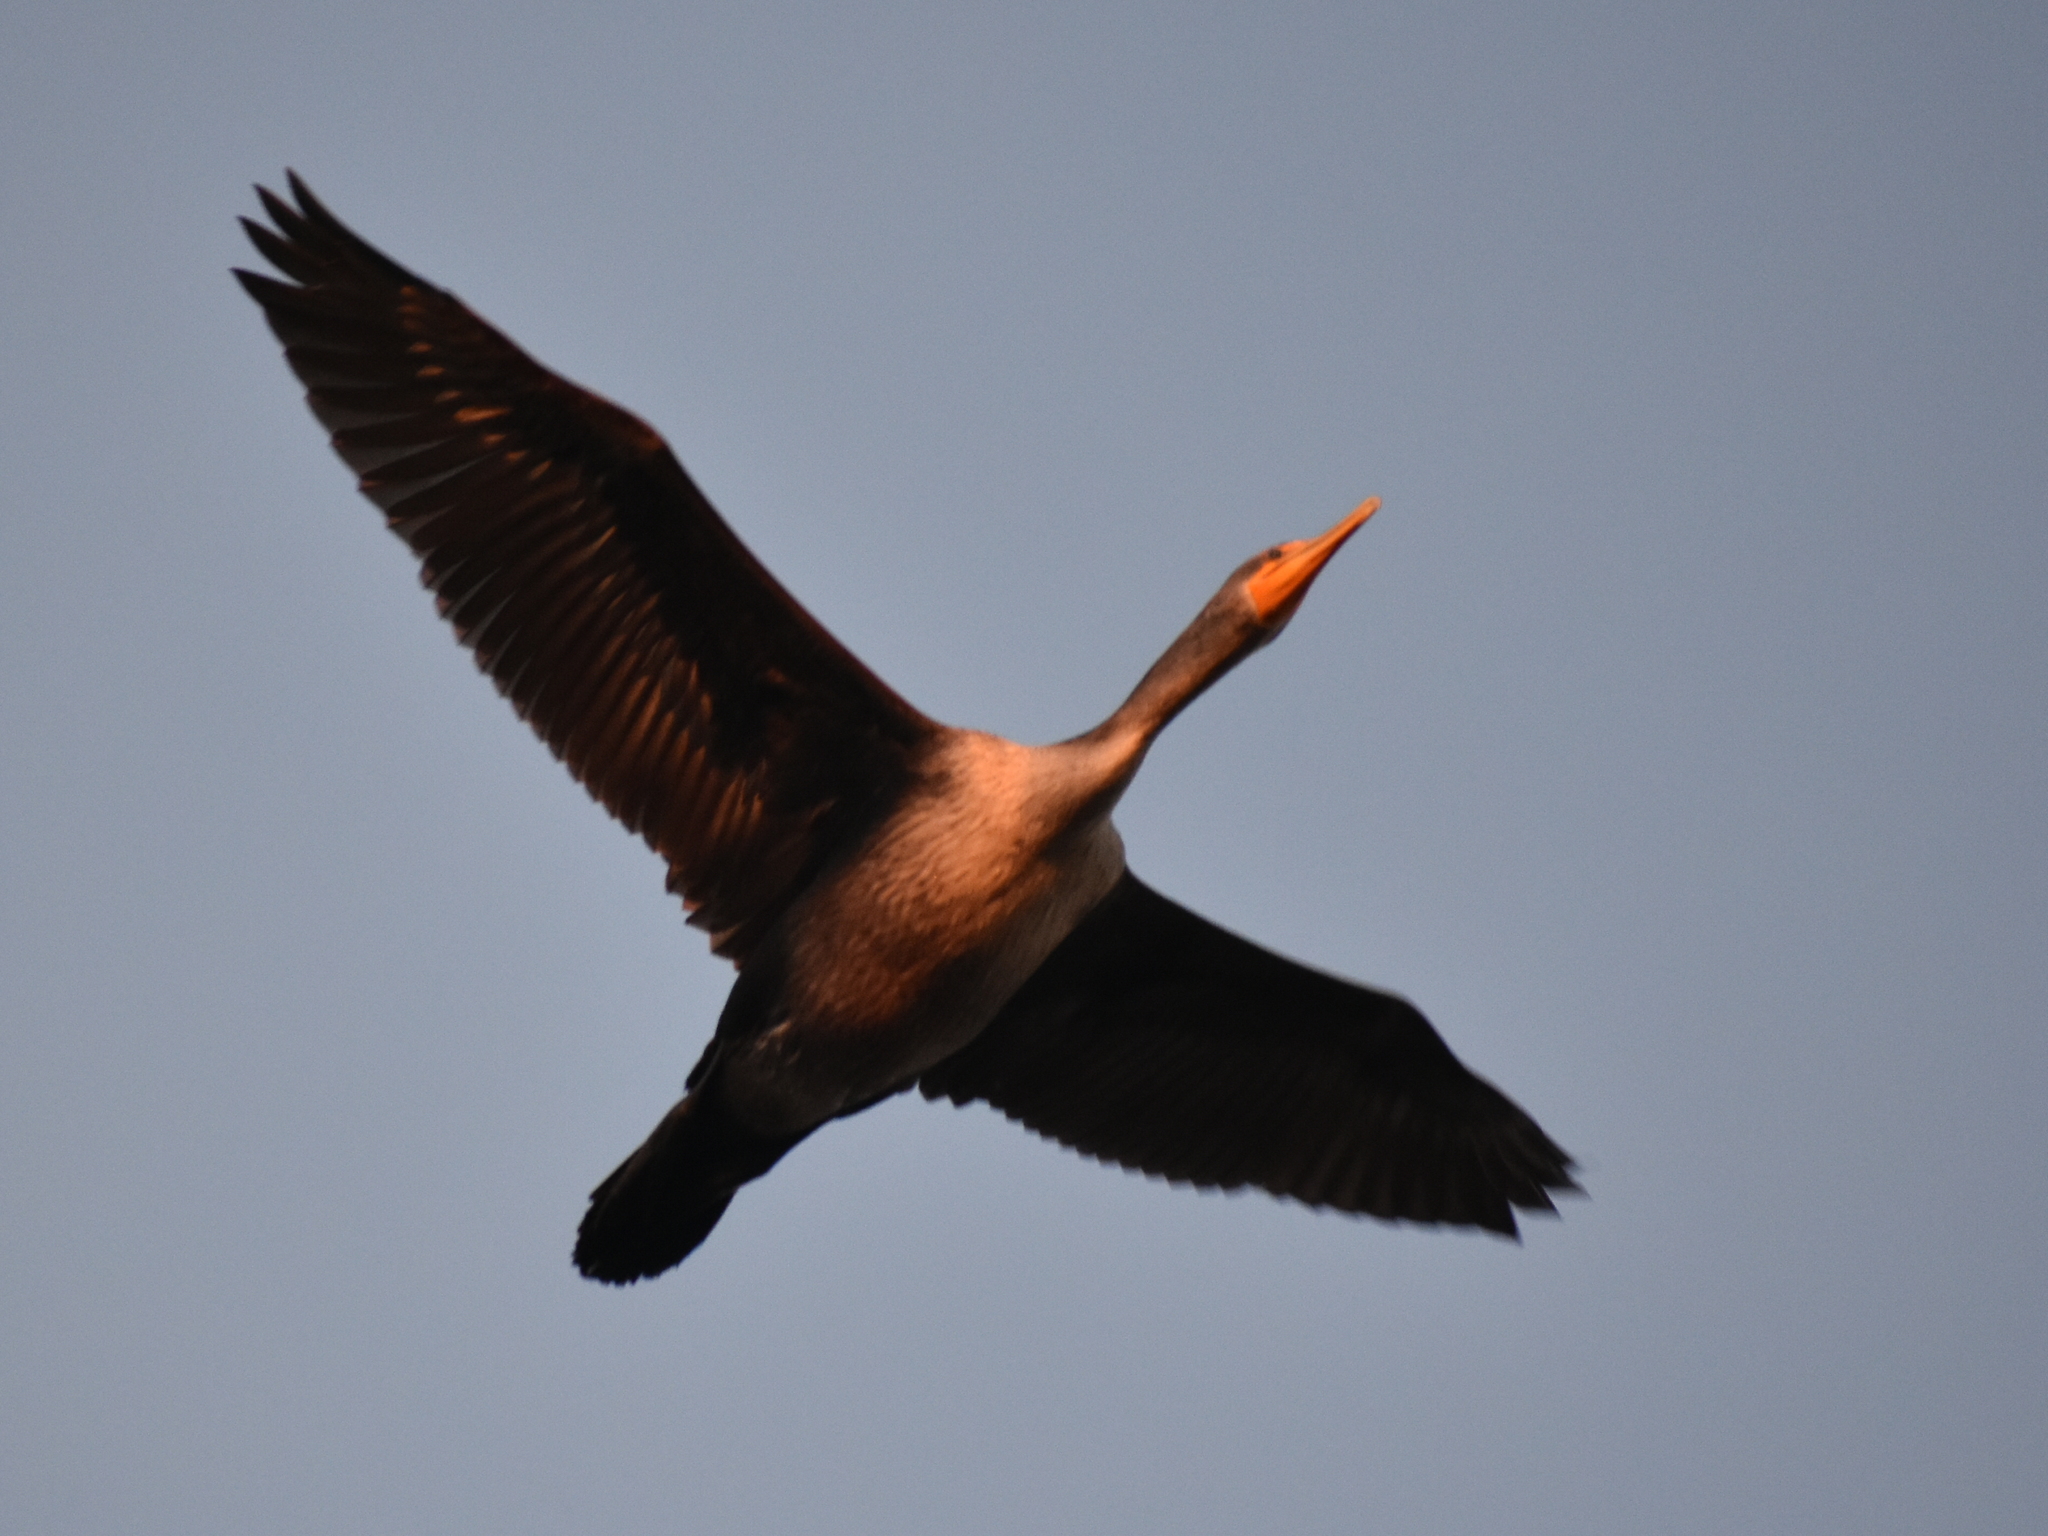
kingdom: Animalia
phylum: Chordata
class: Aves
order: Suliformes
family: Phalacrocoracidae
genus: Phalacrocorax
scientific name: Phalacrocorax auritus
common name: Double-crested cormorant
